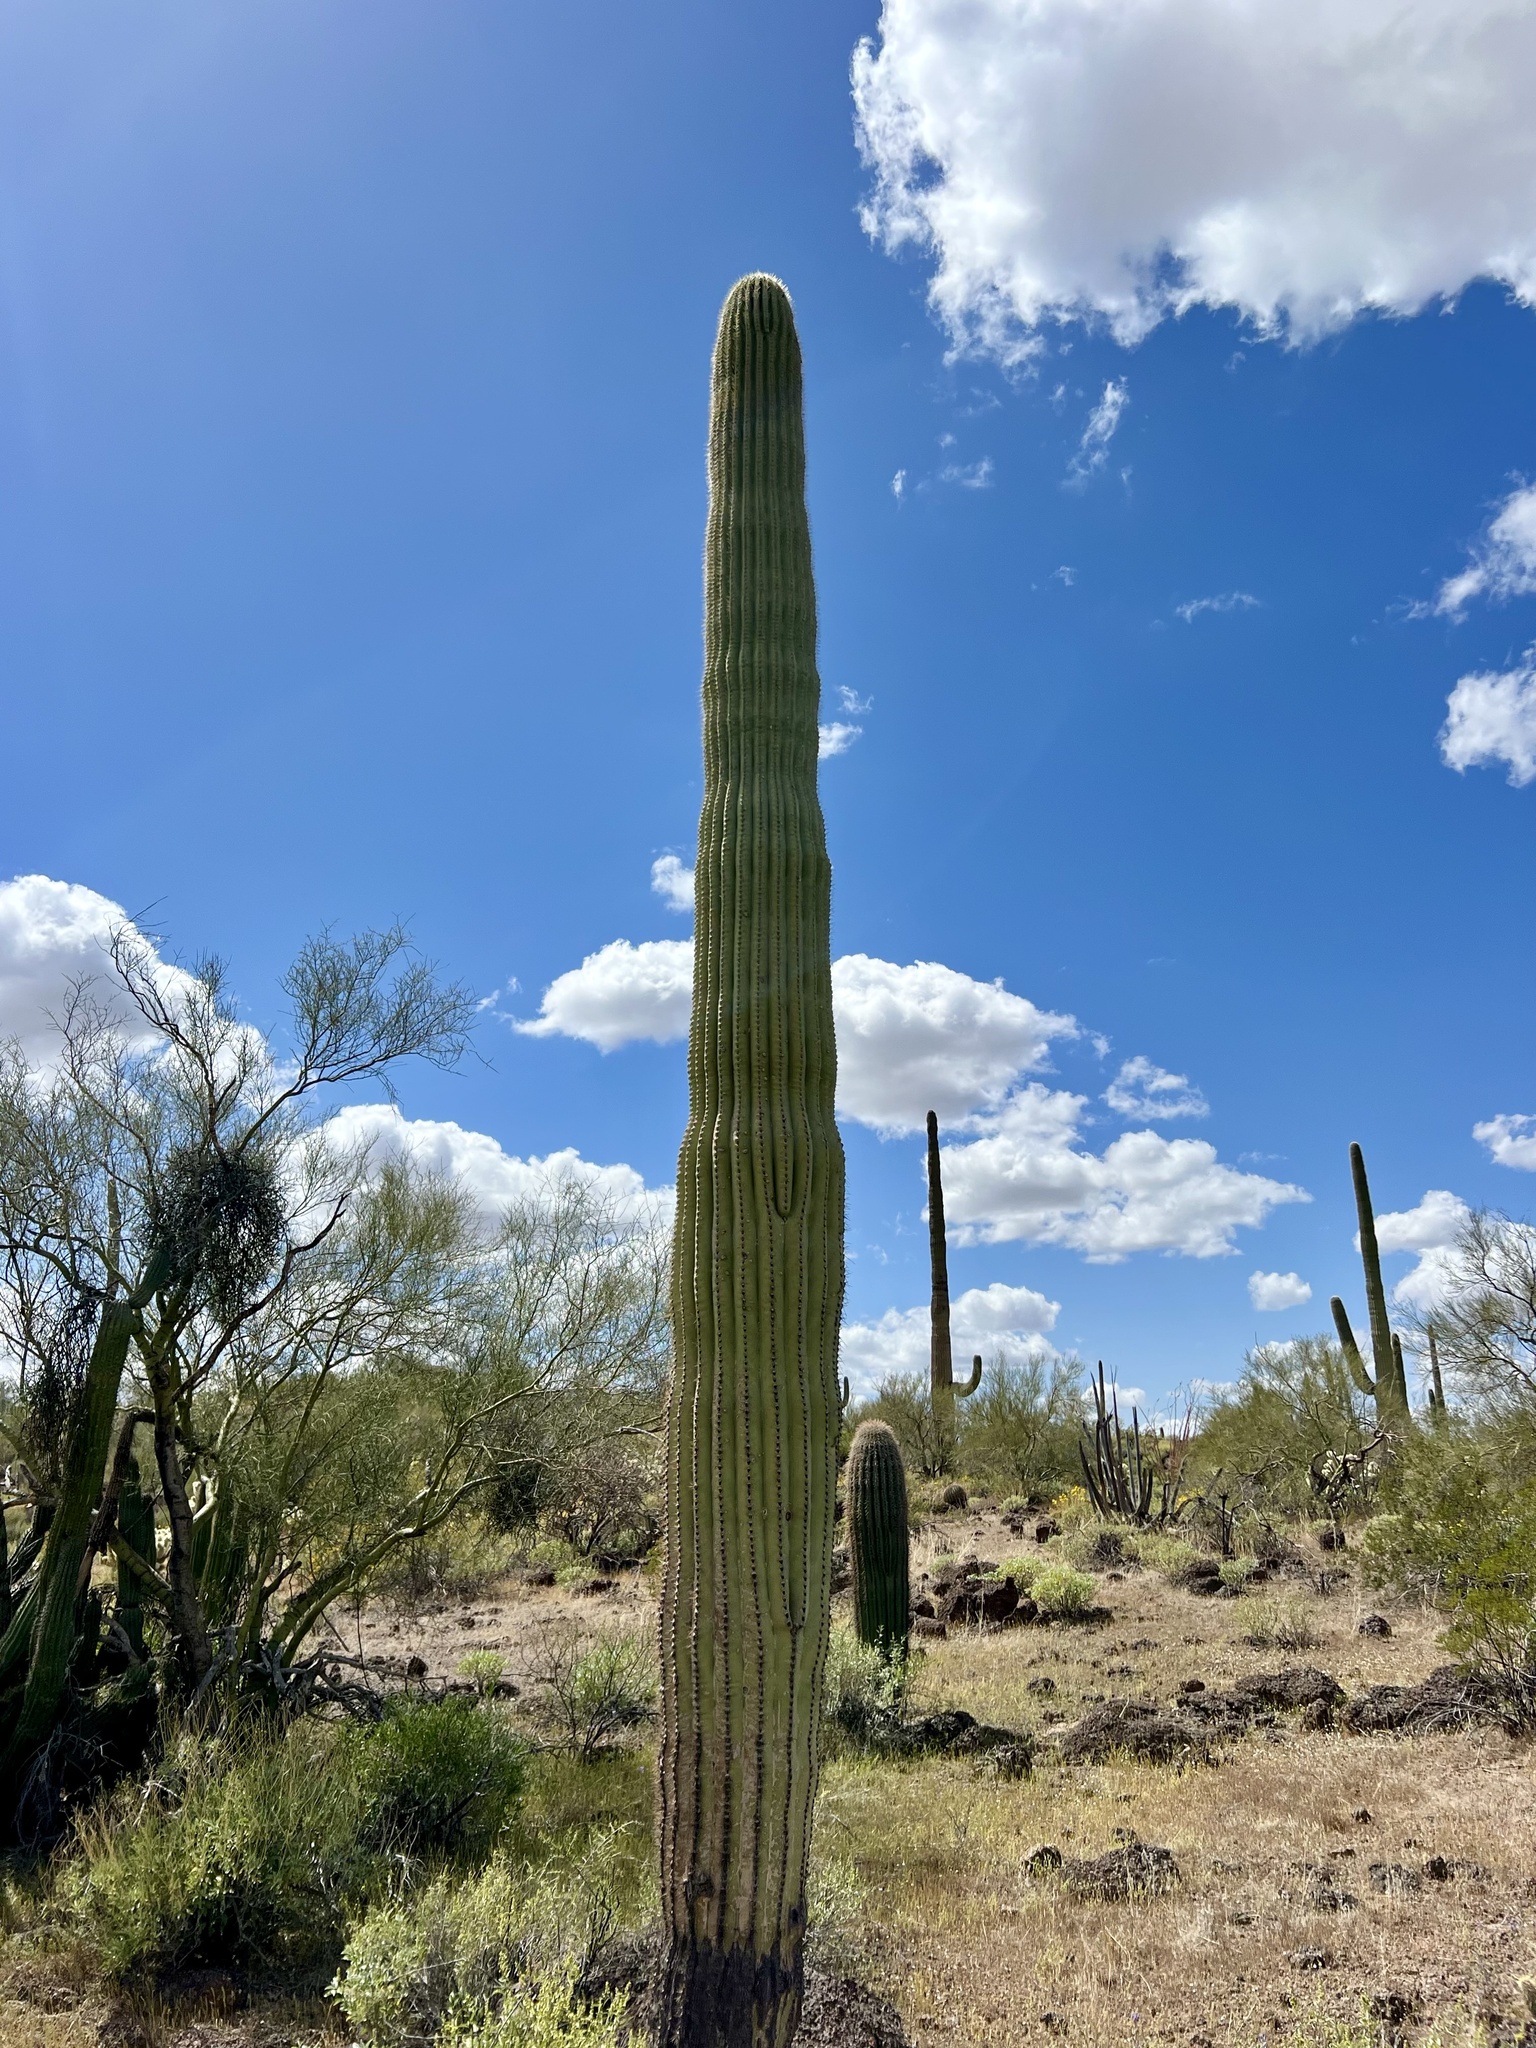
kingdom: Plantae
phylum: Tracheophyta
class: Magnoliopsida
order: Caryophyllales
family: Cactaceae
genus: Carnegiea
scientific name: Carnegiea gigantea
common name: Saguaro
